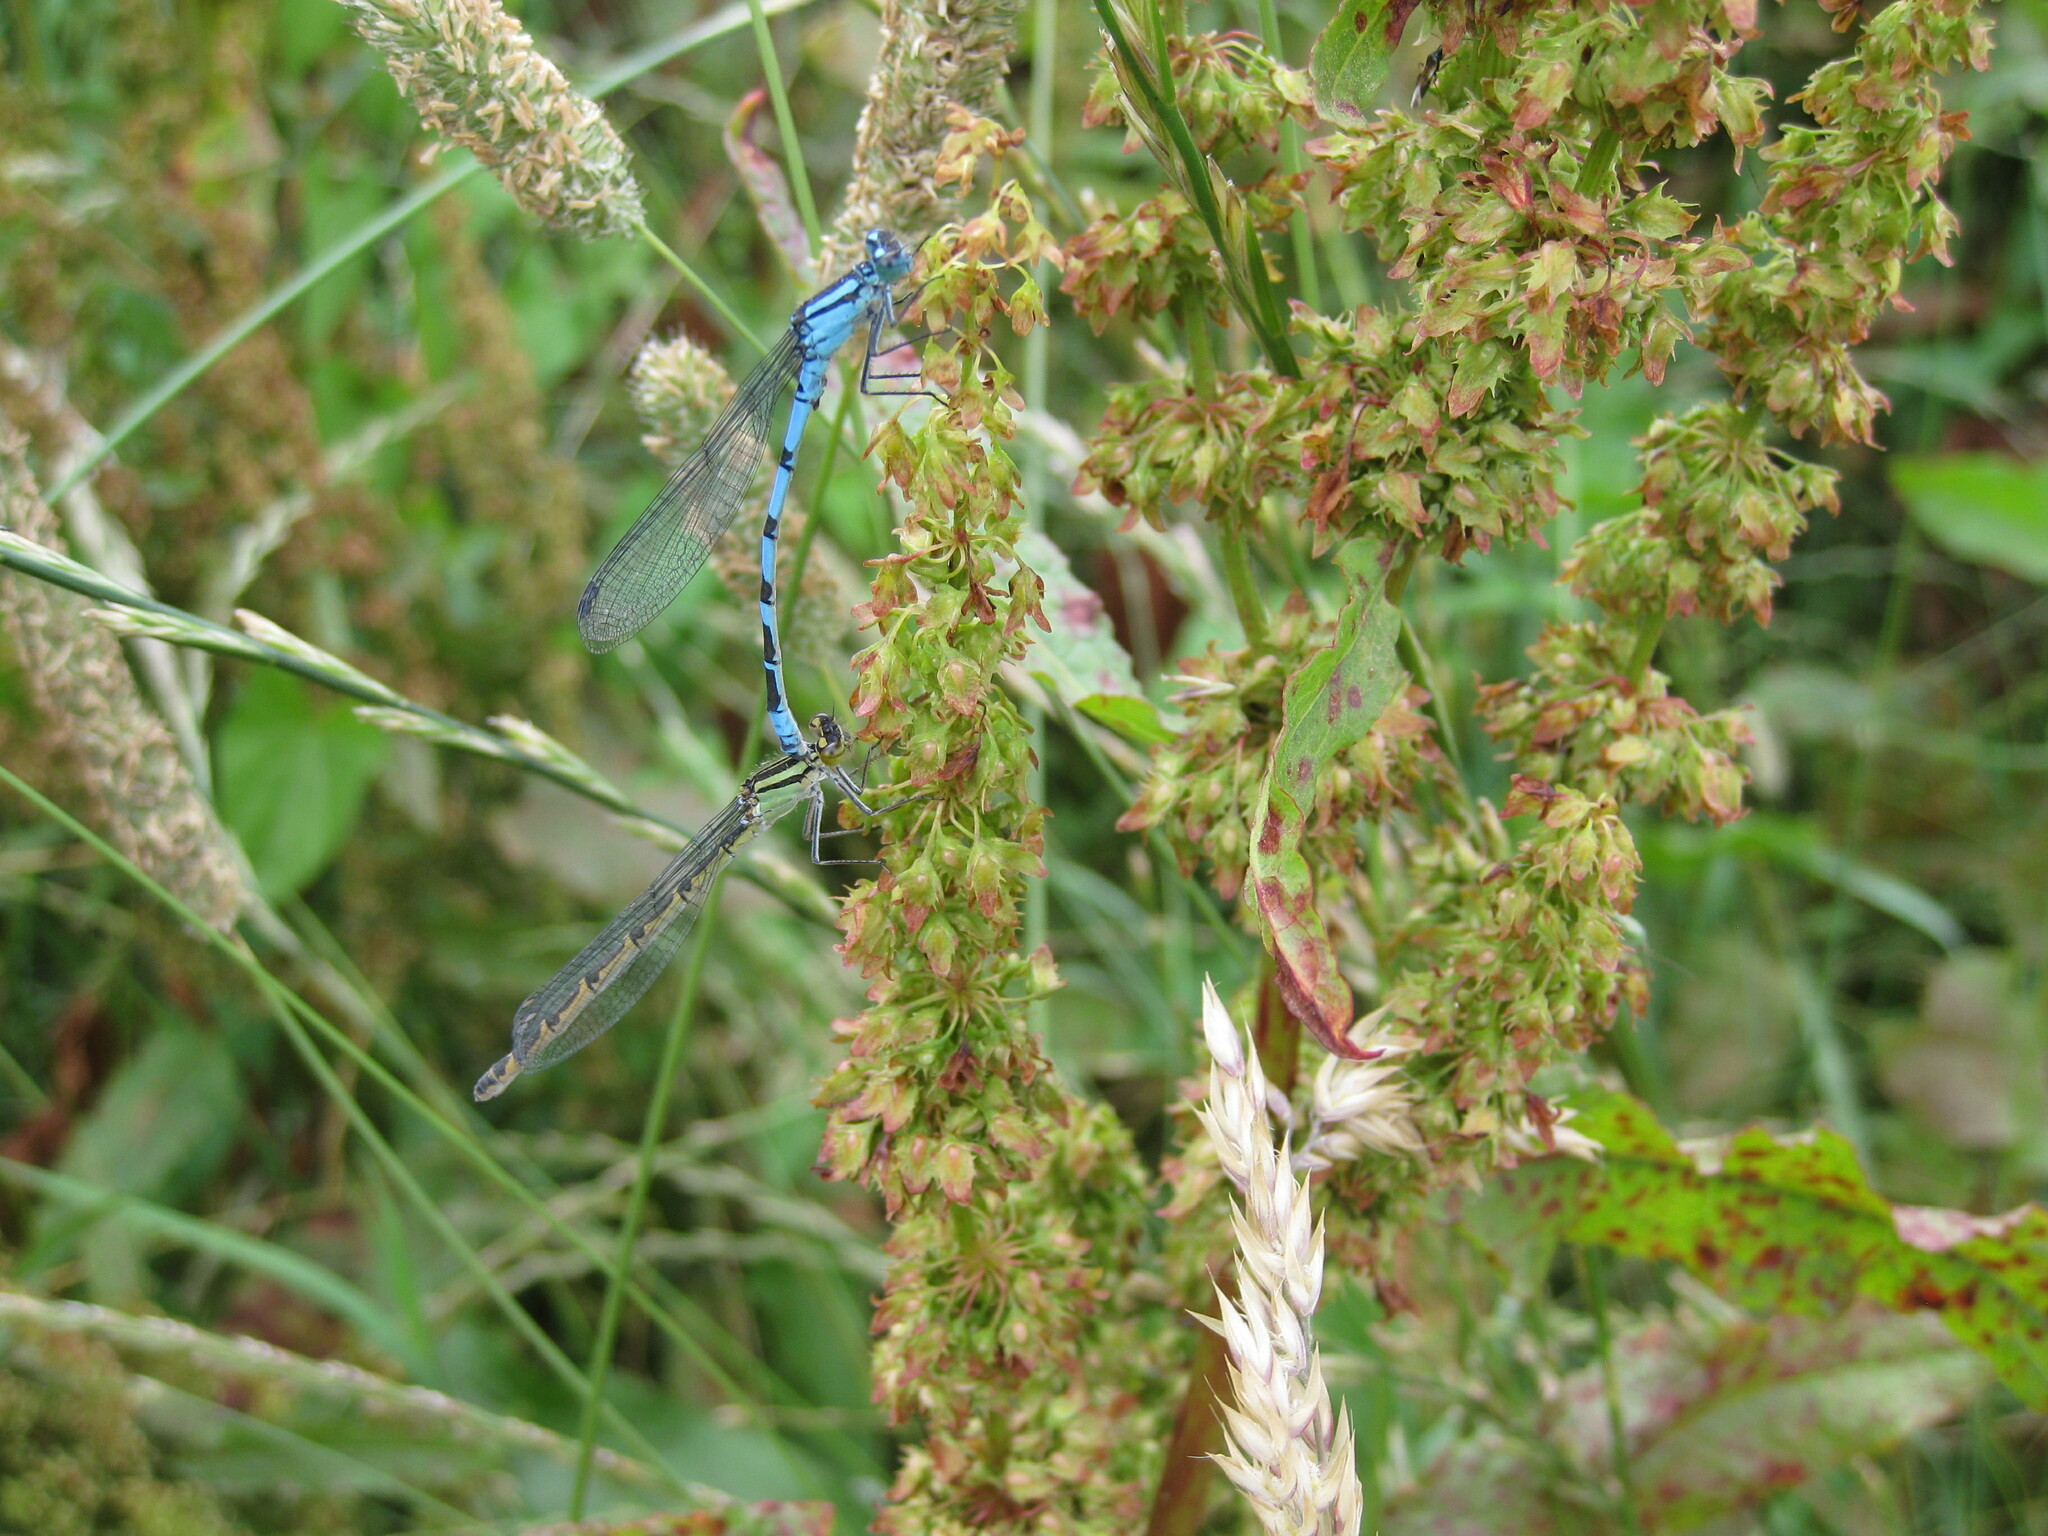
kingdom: Animalia
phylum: Arthropoda
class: Insecta
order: Odonata
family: Coenagrionidae
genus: Enallagma
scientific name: Enallagma cyathigerum
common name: Common blue damselfly
